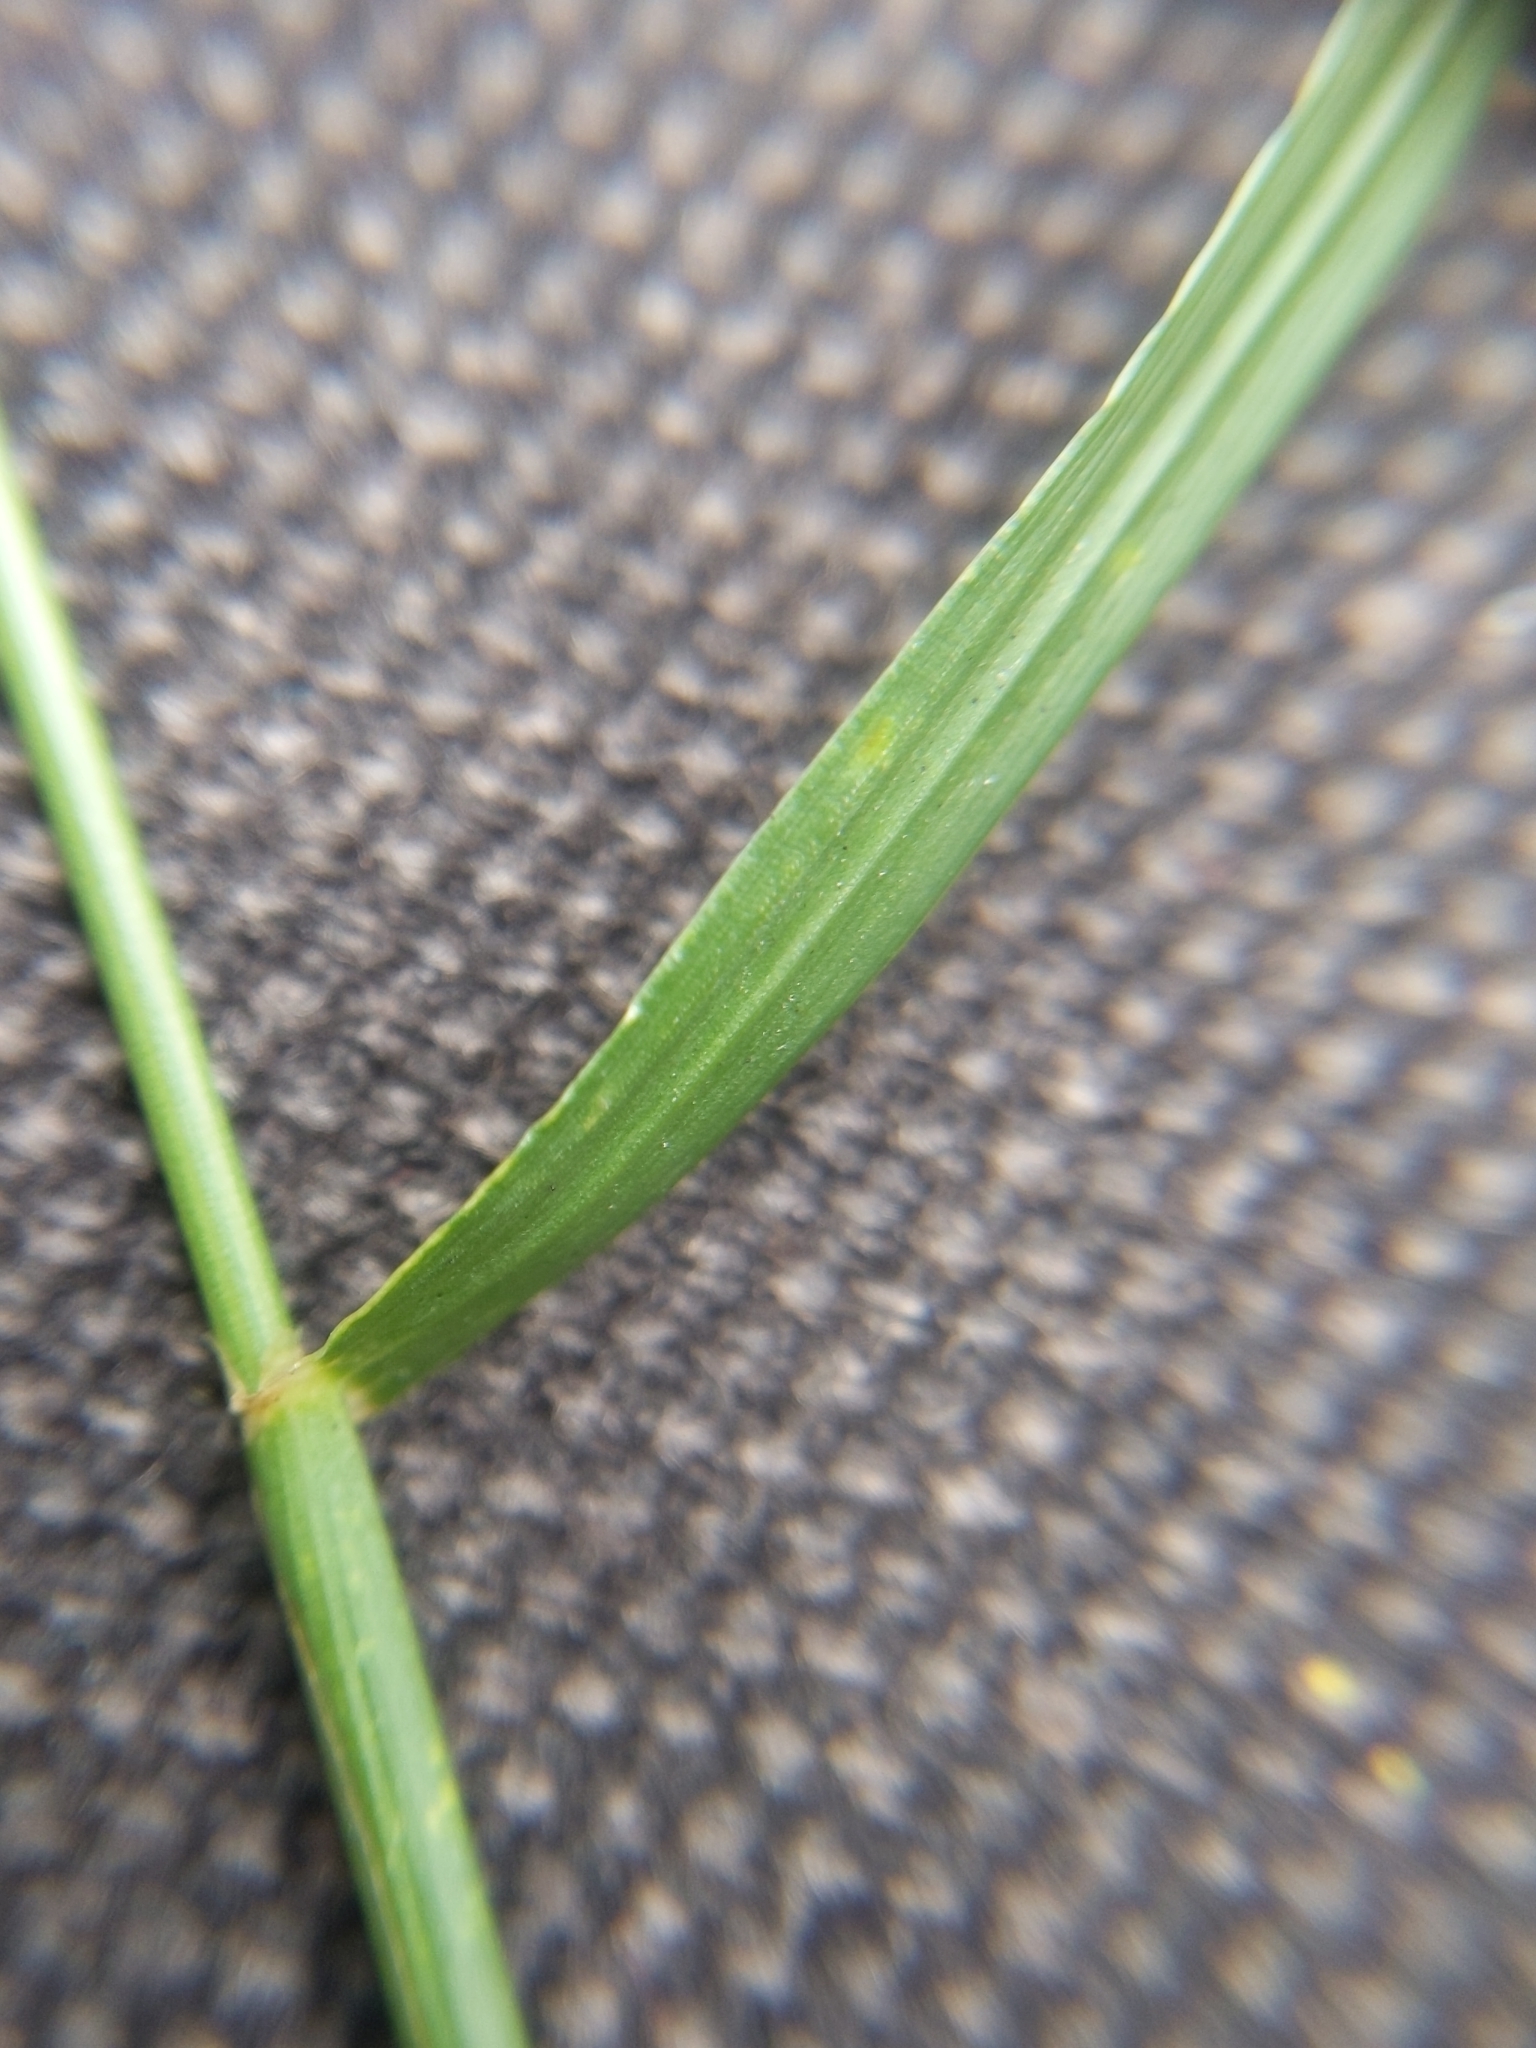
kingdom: Plantae
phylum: Tracheophyta
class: Liliopsida
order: Poales
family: Poaceae
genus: Lolium
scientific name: Lolium perenne
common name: Perennial ryegrass
